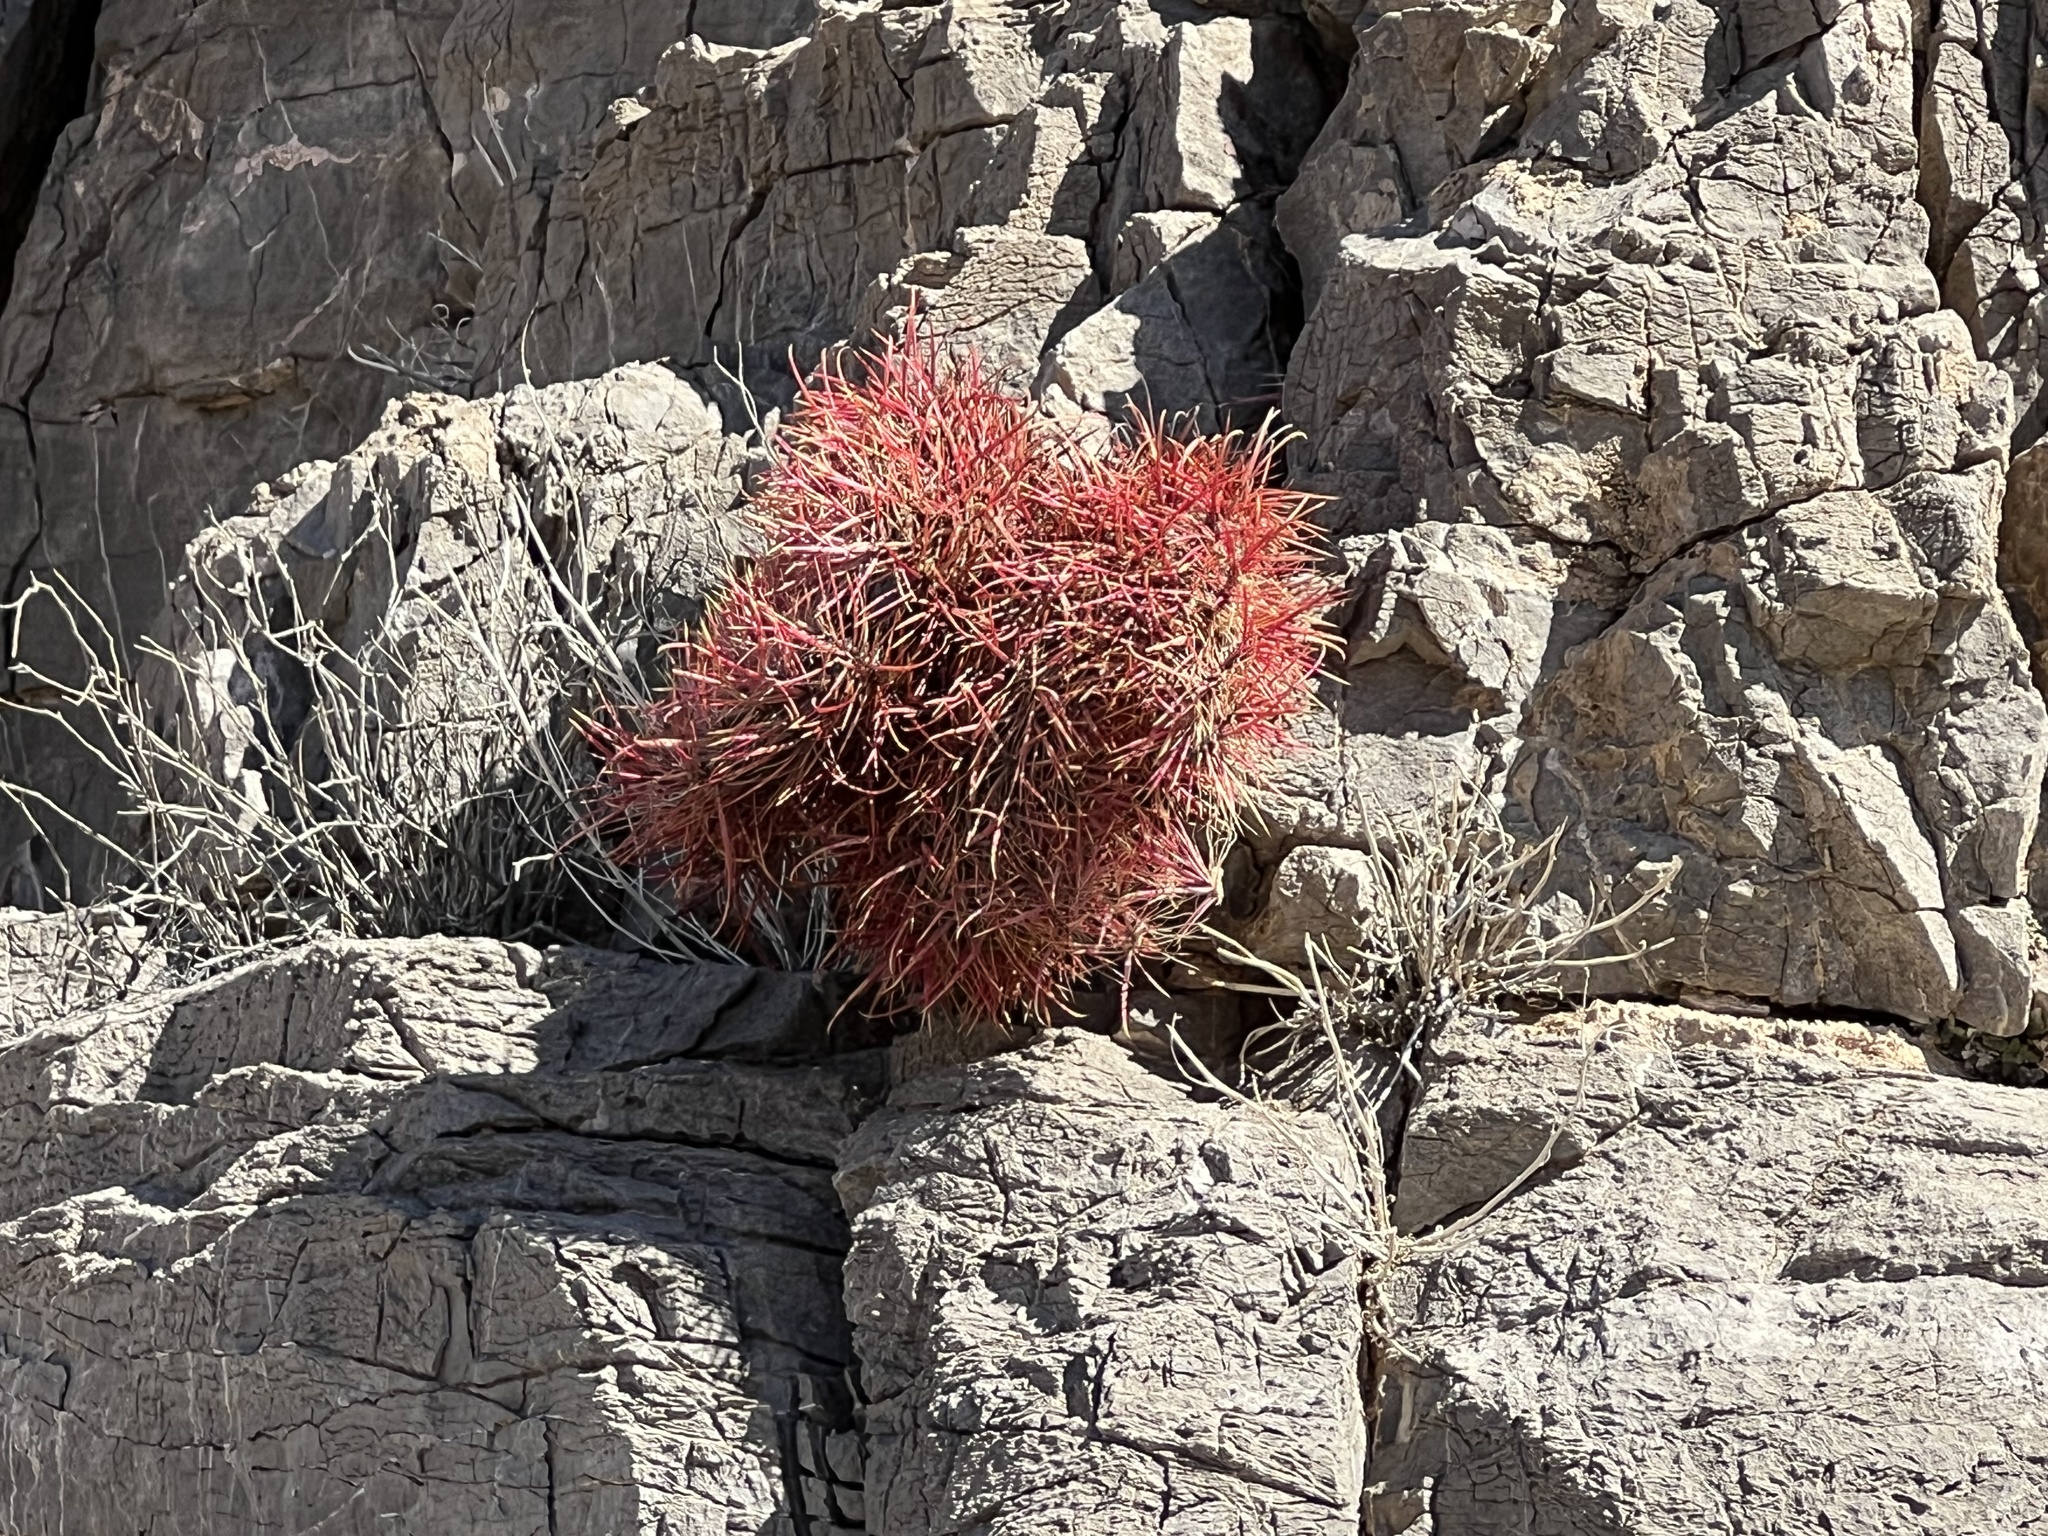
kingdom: Plantae
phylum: Tracheophyta
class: Magnoliopsida
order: Caryophyllales
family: Cactaceae
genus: Ferocactus
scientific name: Ferocactus cylindraceus
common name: California barrel cactus
